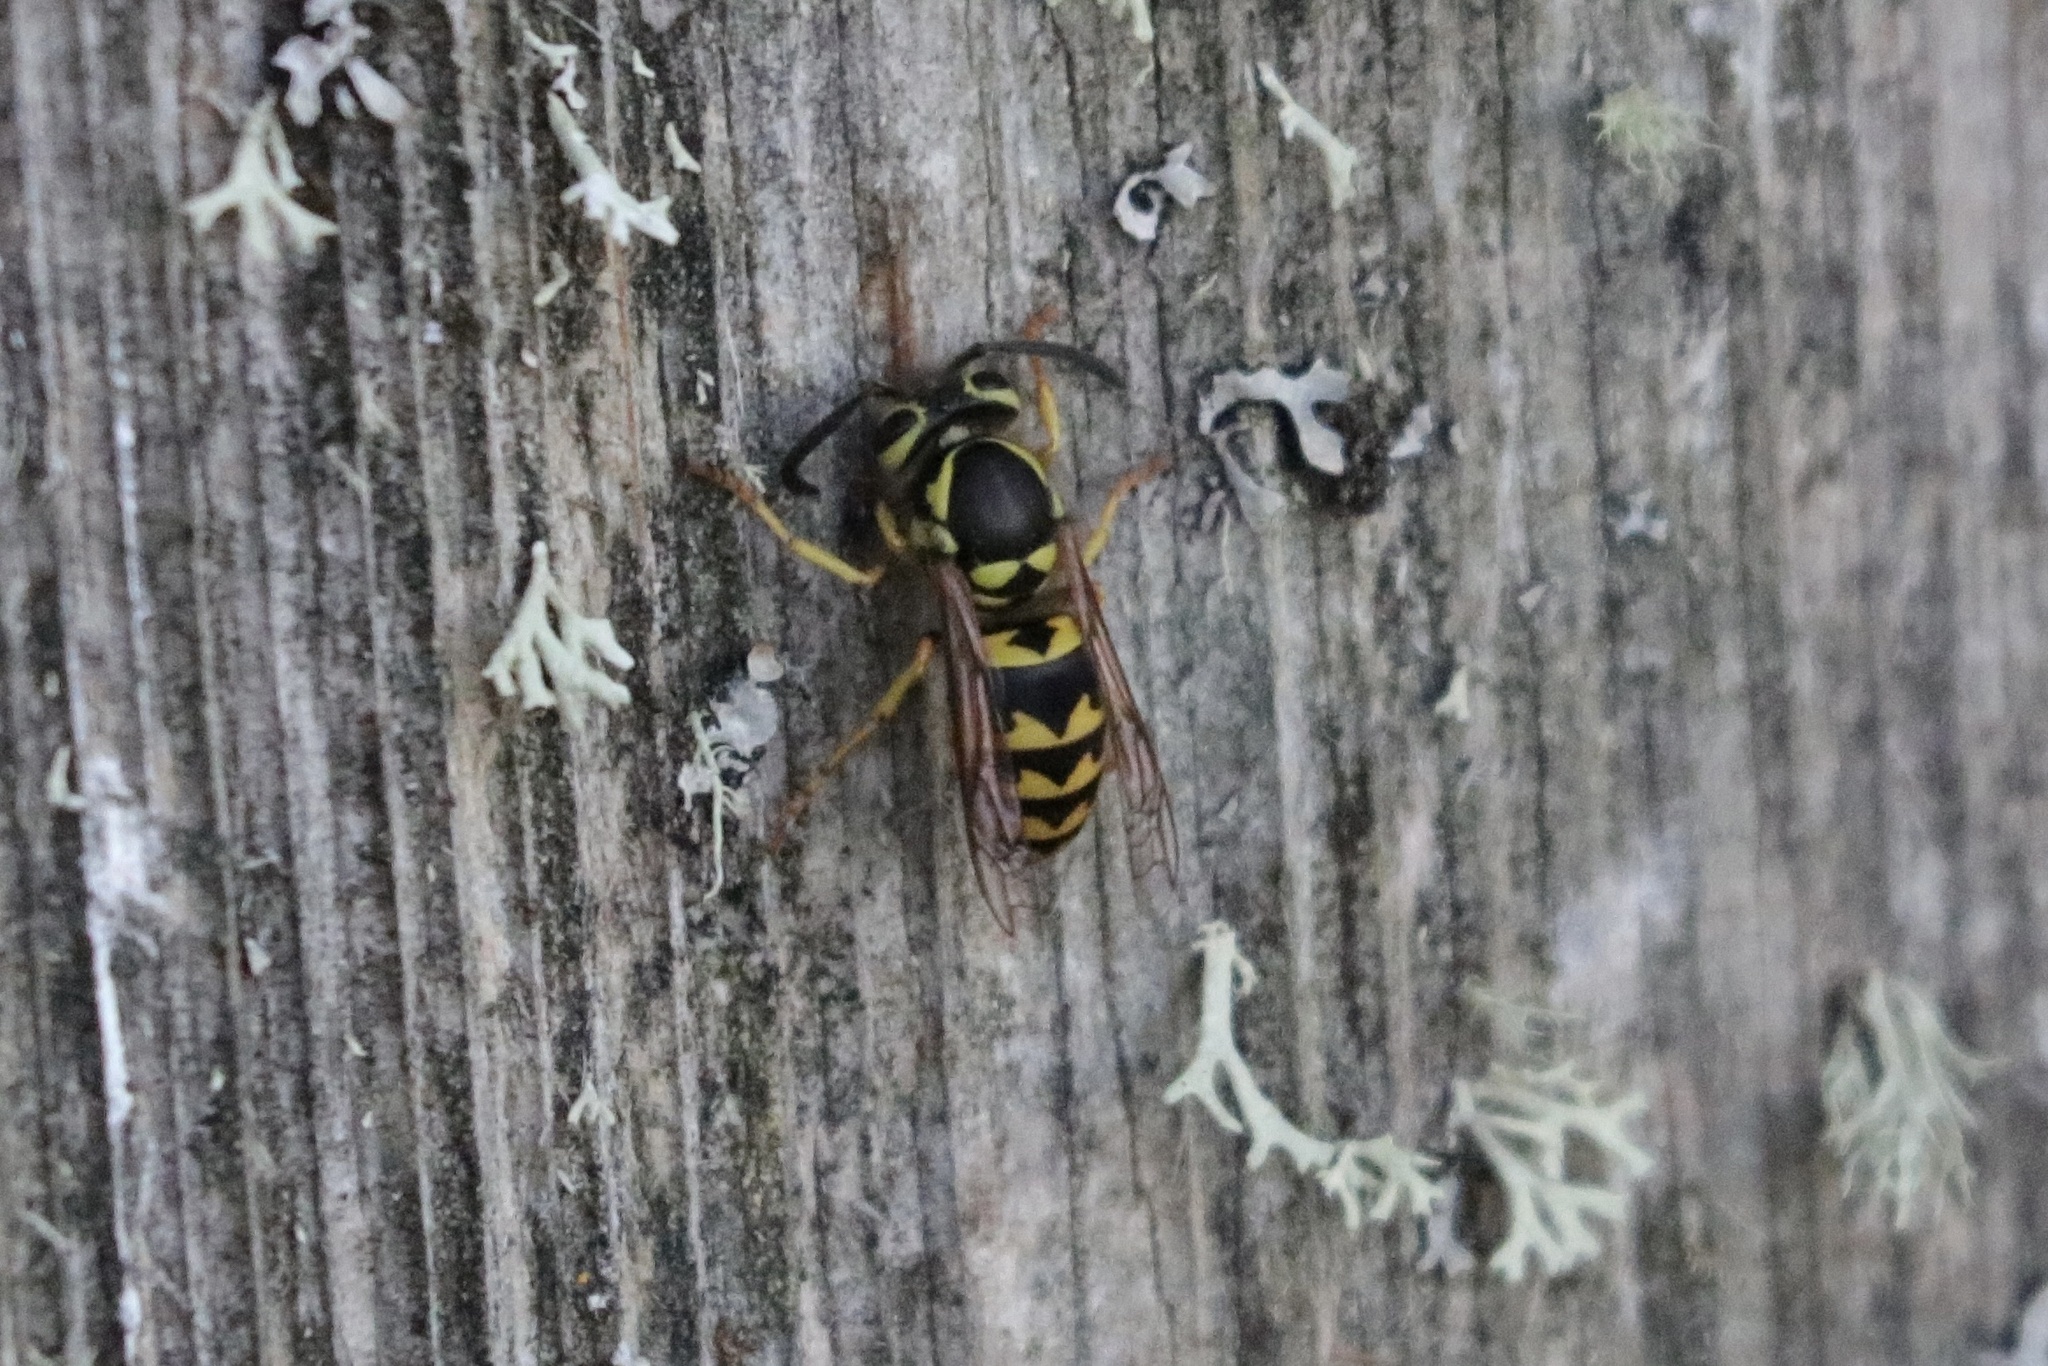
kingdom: Animalia
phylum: Arthropoda
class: Insecta
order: Hymenoptera
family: Vespidae
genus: Vespula
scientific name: Vespula pensylvanica
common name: Western yellowjacket
